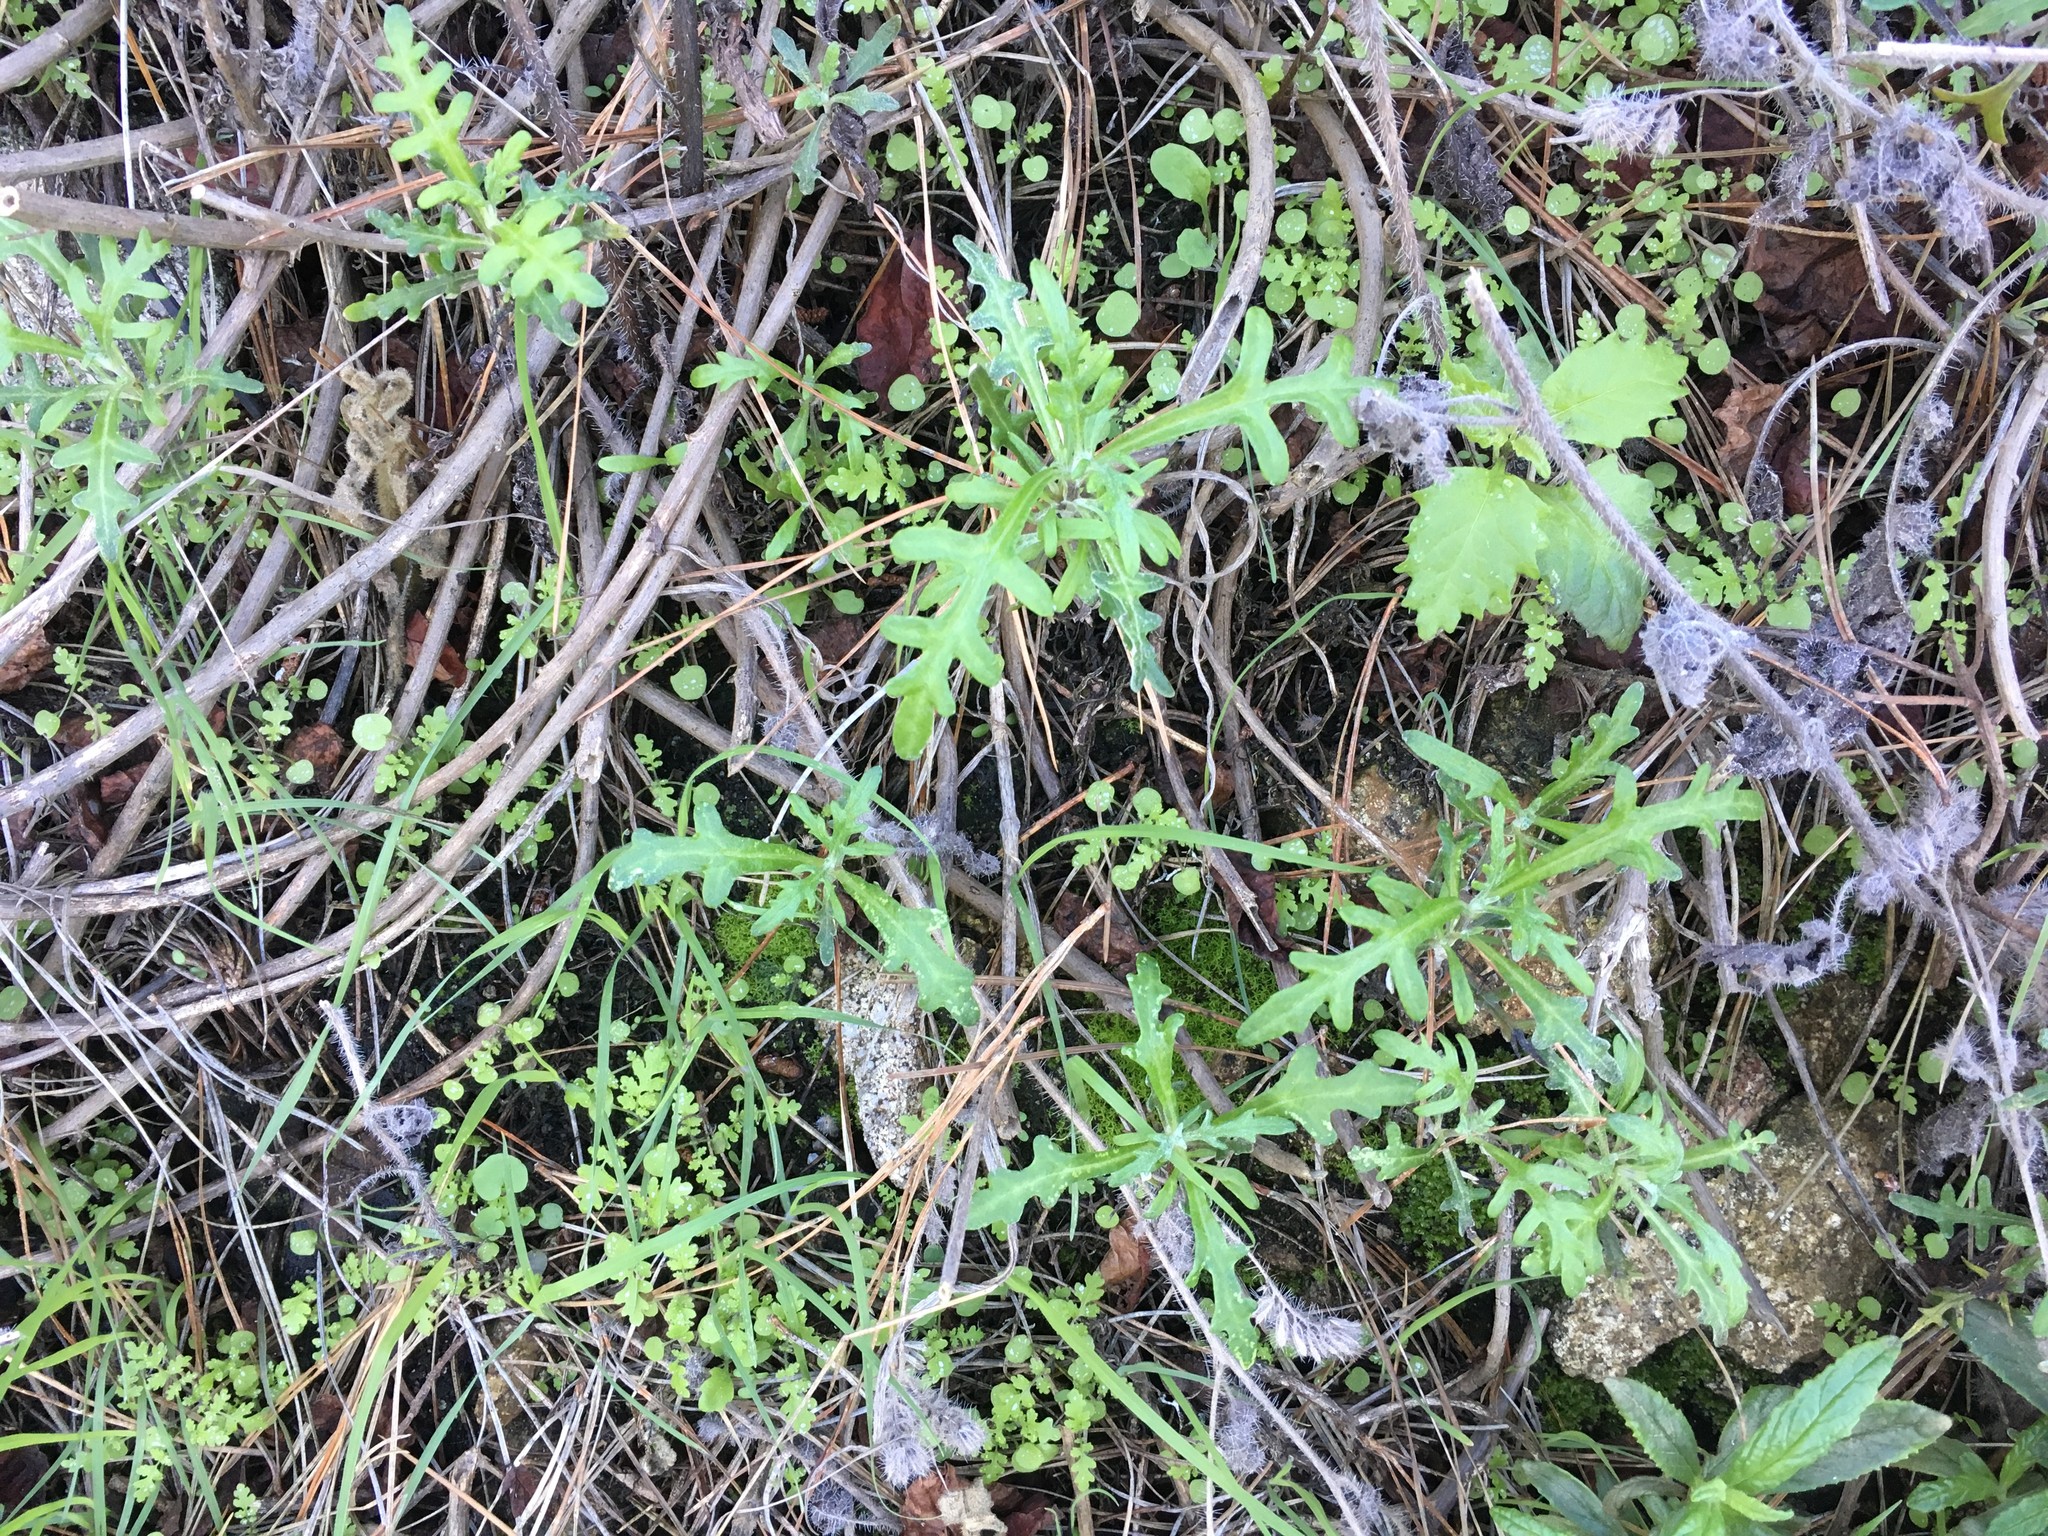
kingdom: Plantae
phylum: Tracheophyta
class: Magnoliopsida
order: Asterales
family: Asteraceae
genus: Eriophyllum
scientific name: Eriophyllum staechadifolium
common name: Lizardtail
